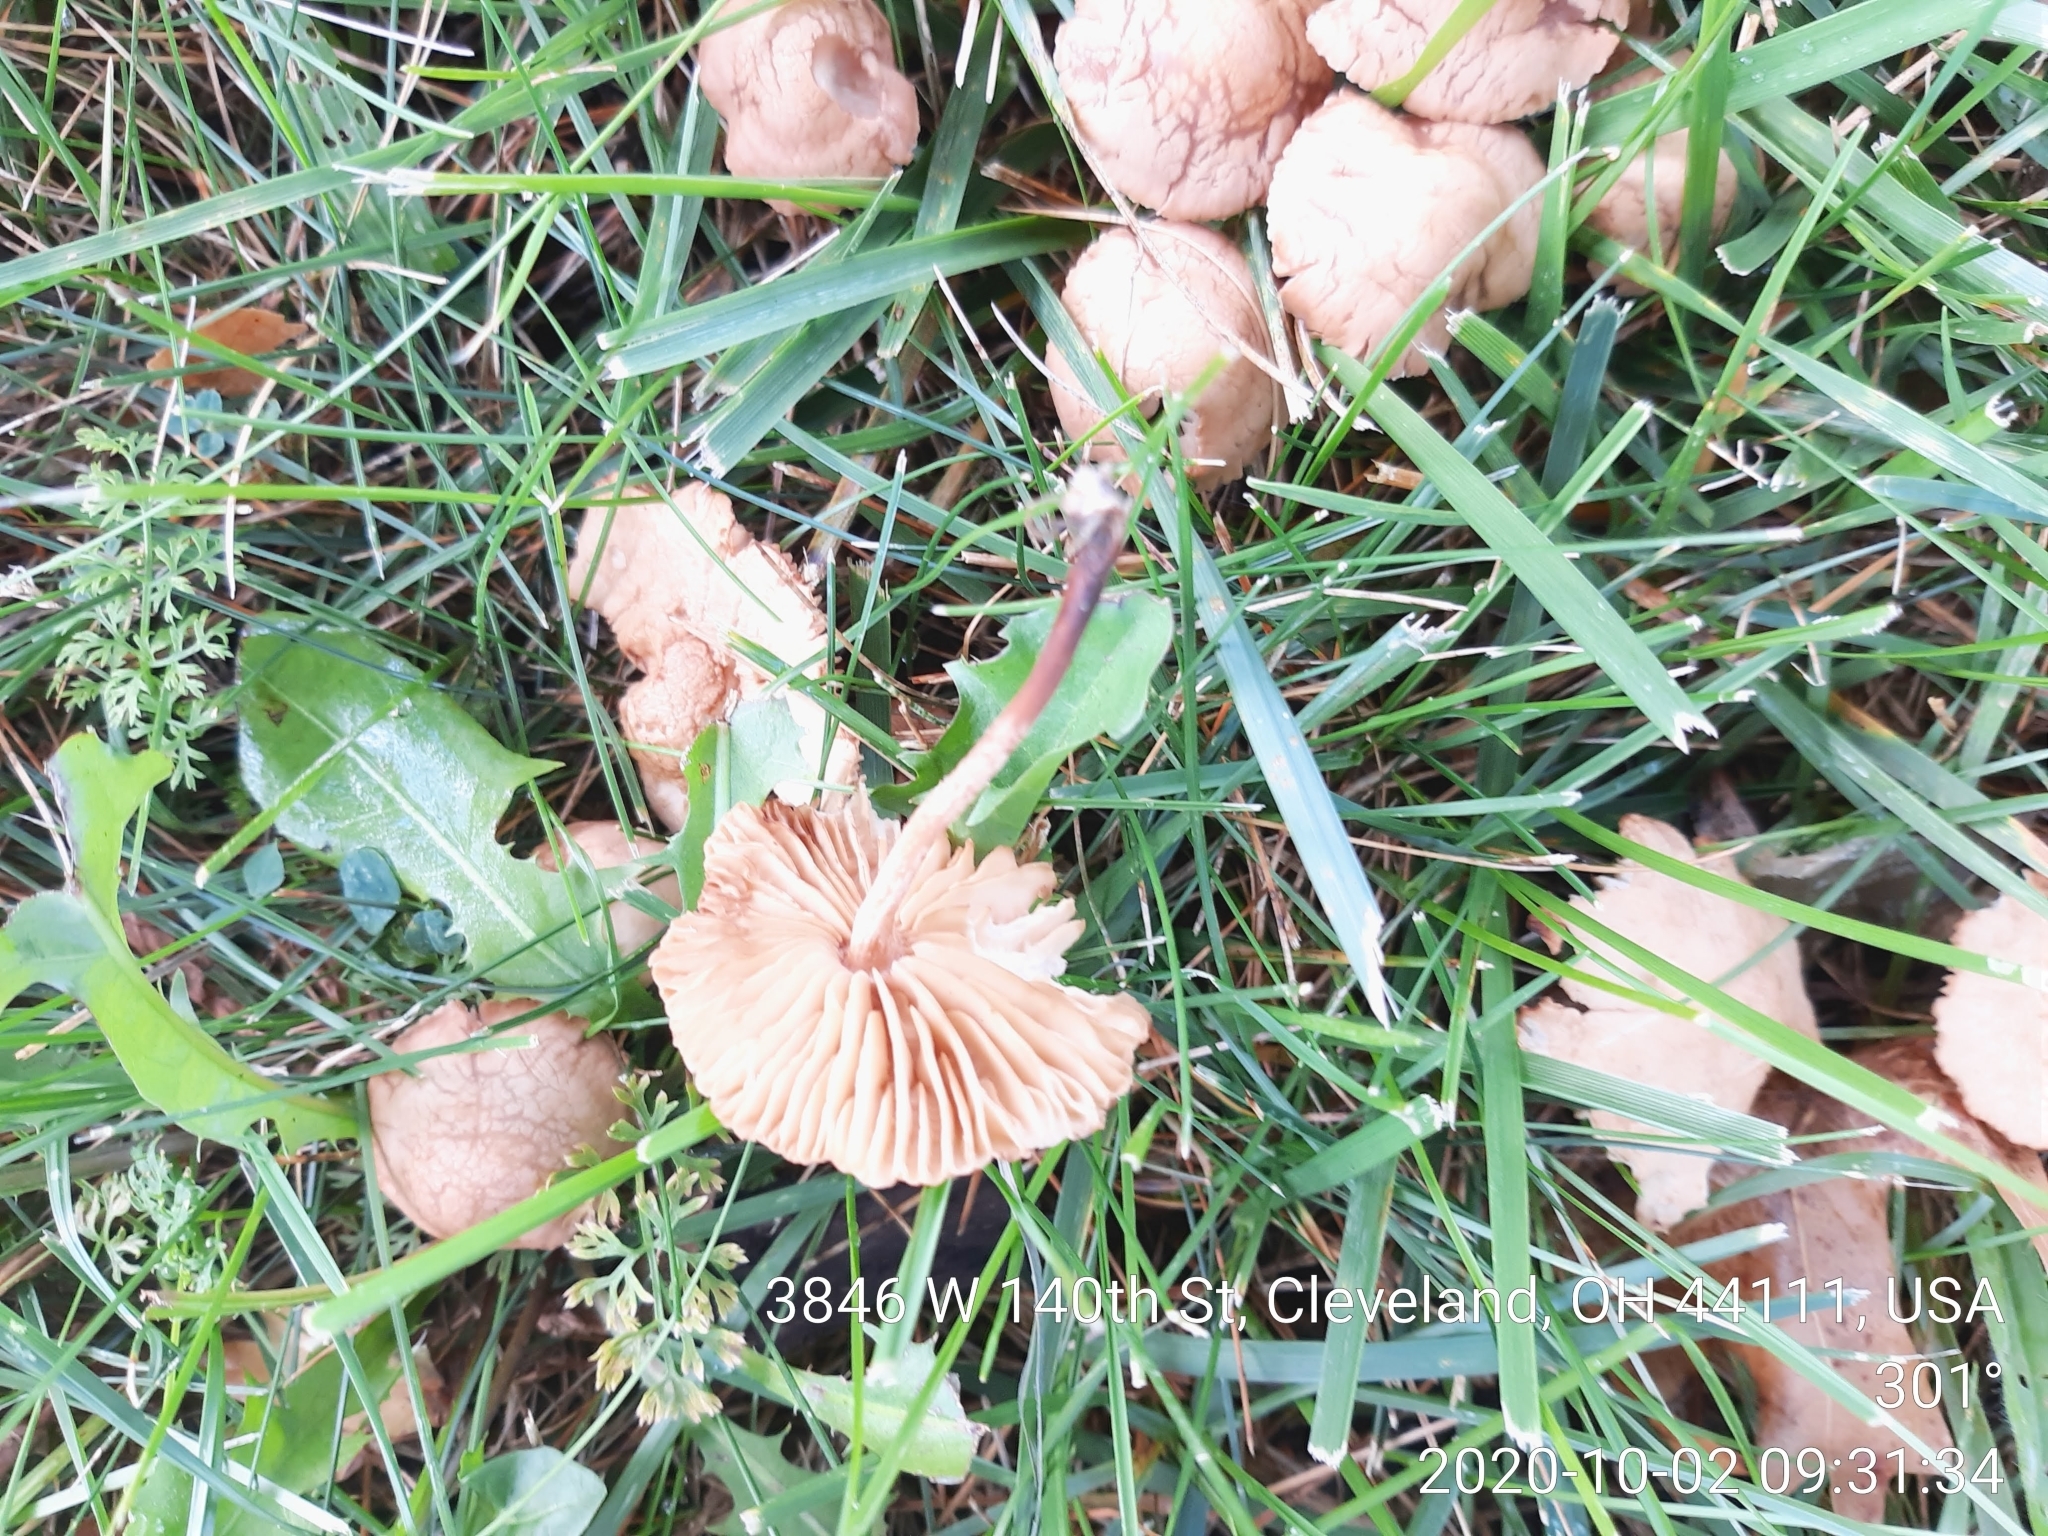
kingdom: Fungi
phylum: Basidiomycota
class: Agaricomycetes
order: Agaricales
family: Marasmiaceae
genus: Marasmius
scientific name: Marasmius oreades
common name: Fairy ring champignon
